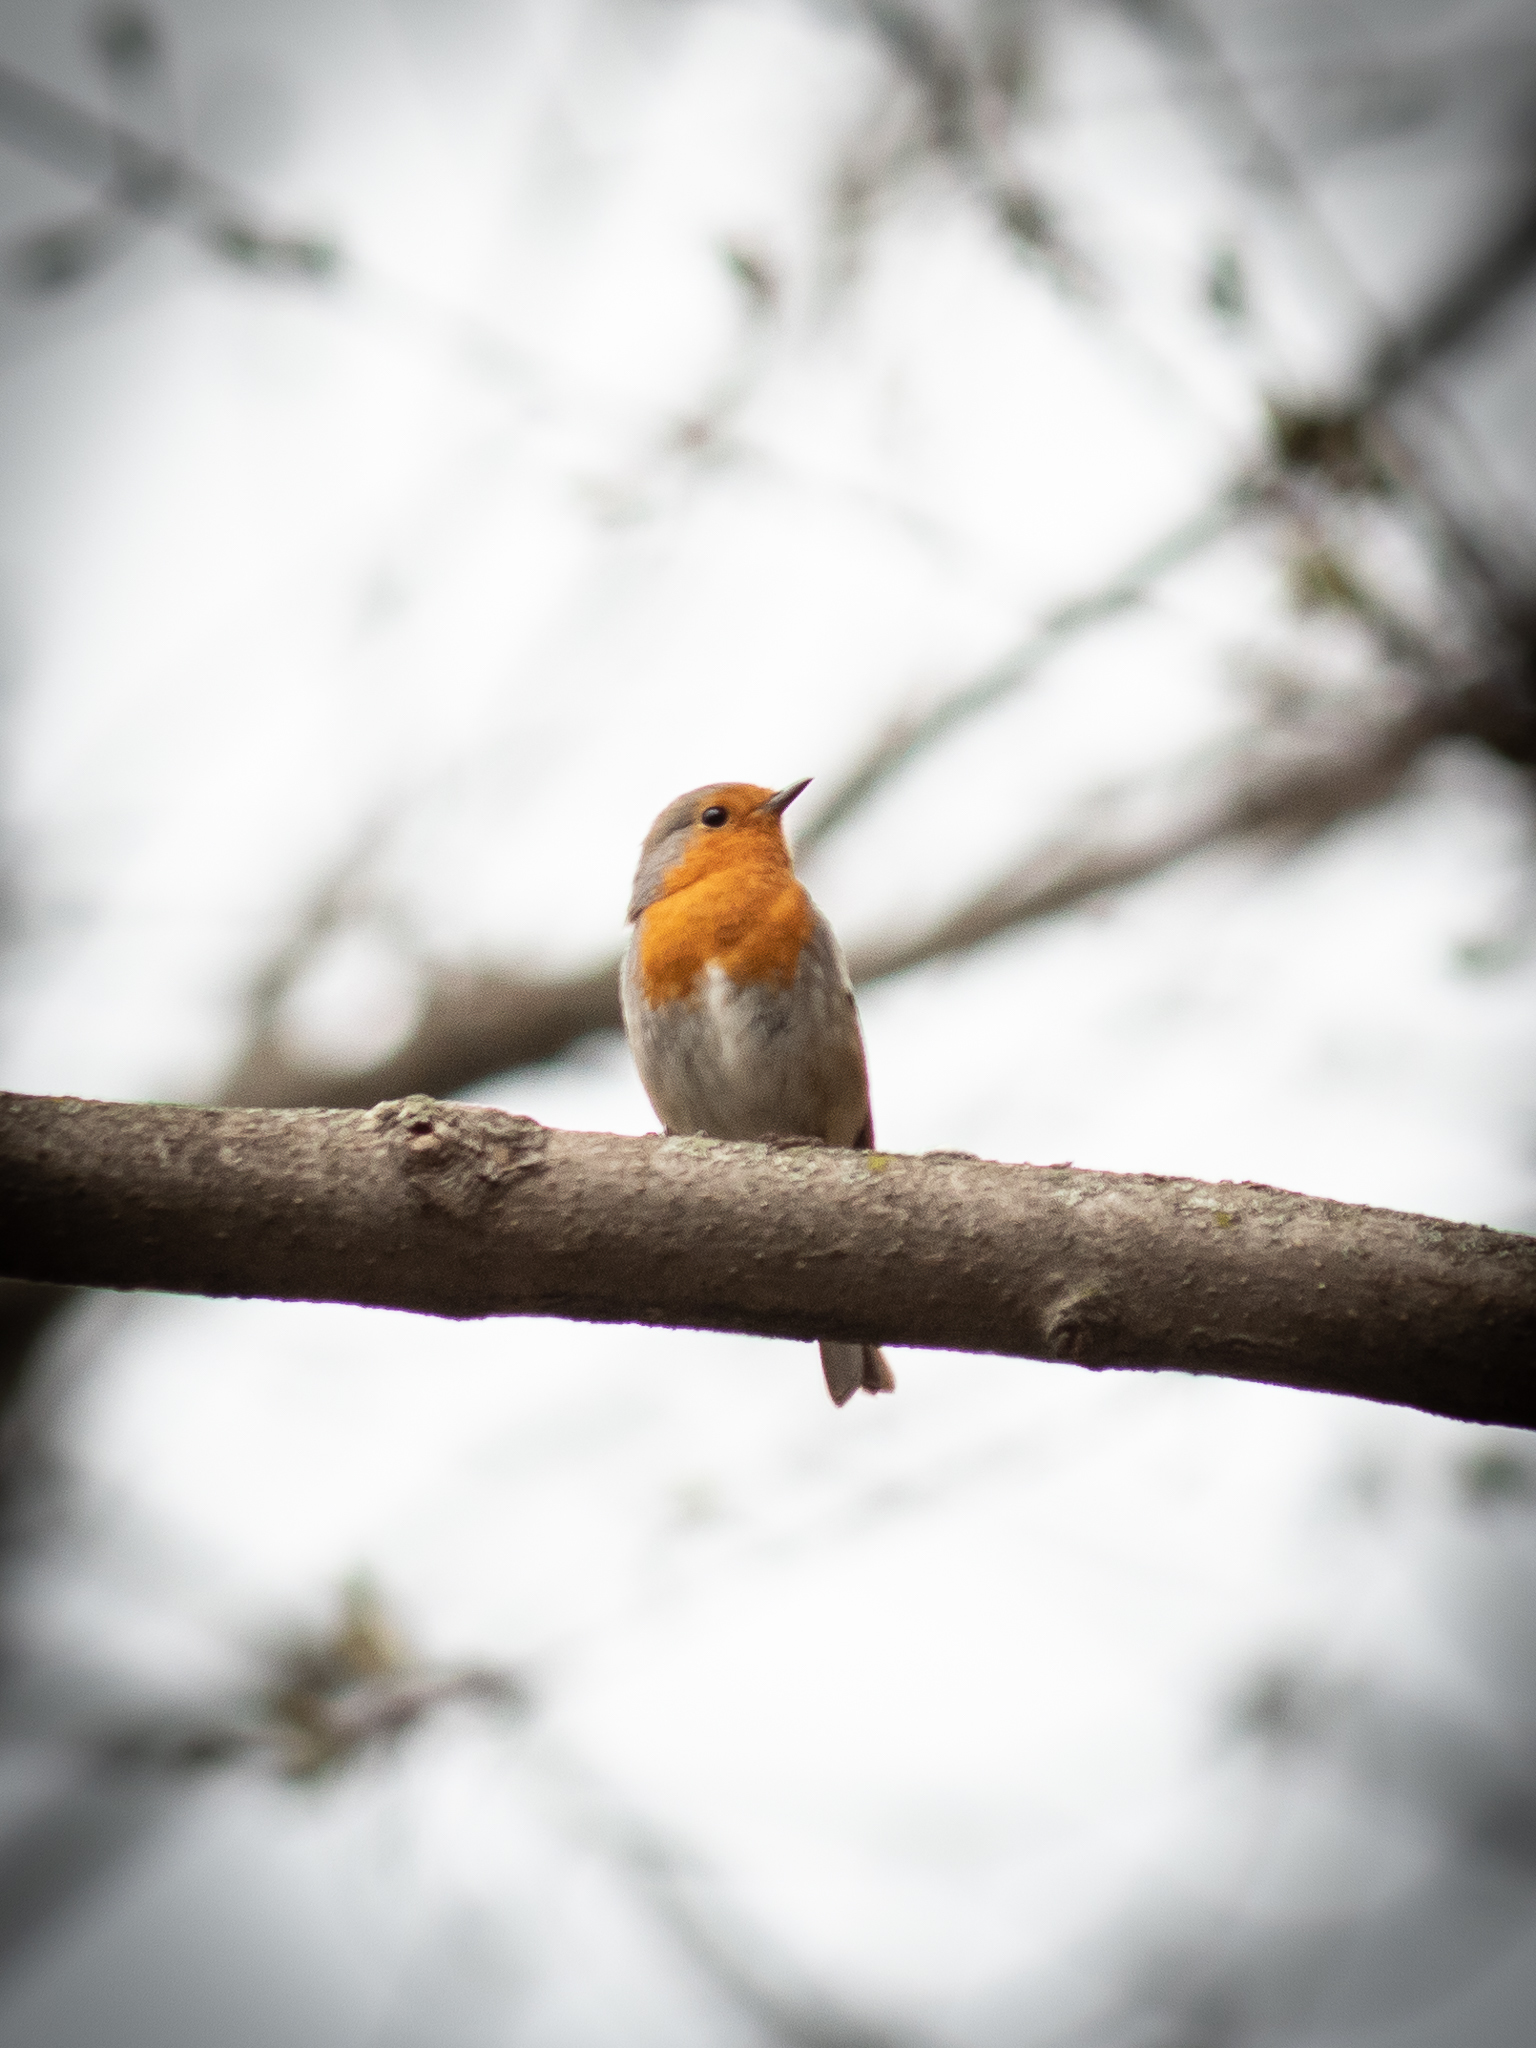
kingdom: Animalia
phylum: Chordata
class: Aves
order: Passeriformes
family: Muscicapidae
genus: Erithacus
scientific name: Erithacus rubecula
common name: European robin
